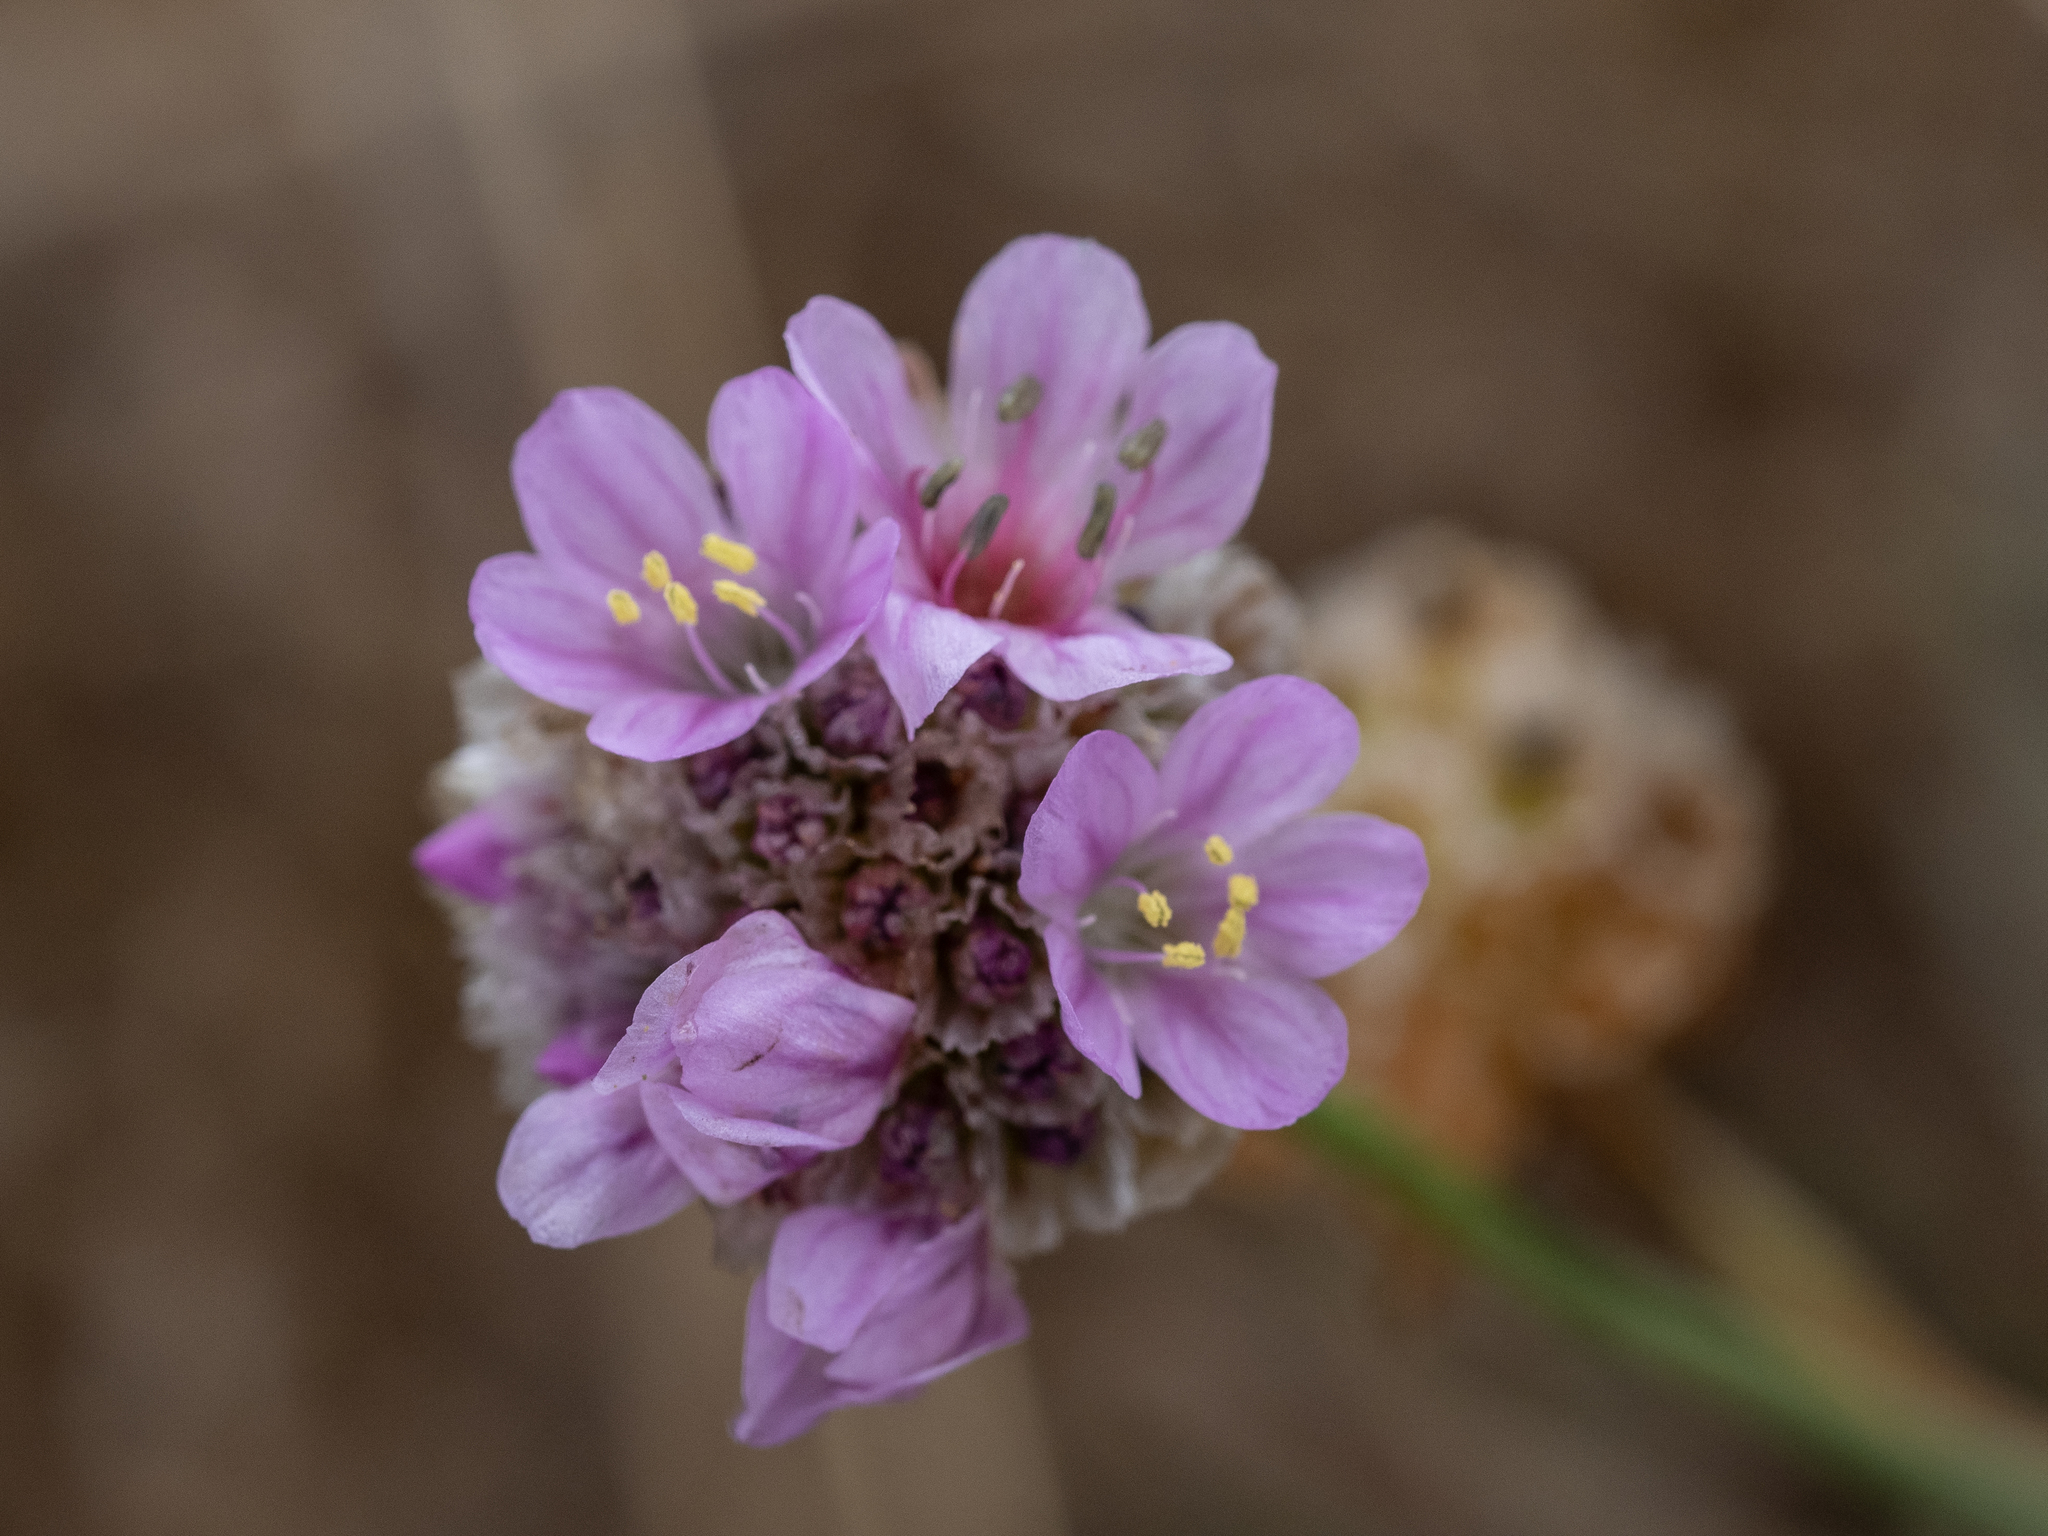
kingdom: Plantae
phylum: Tracheophyta
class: Magnoliopsida
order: Caryophyllales
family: Plumbaginaceae
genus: Armeria
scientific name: Armeria maritima
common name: Thrift
